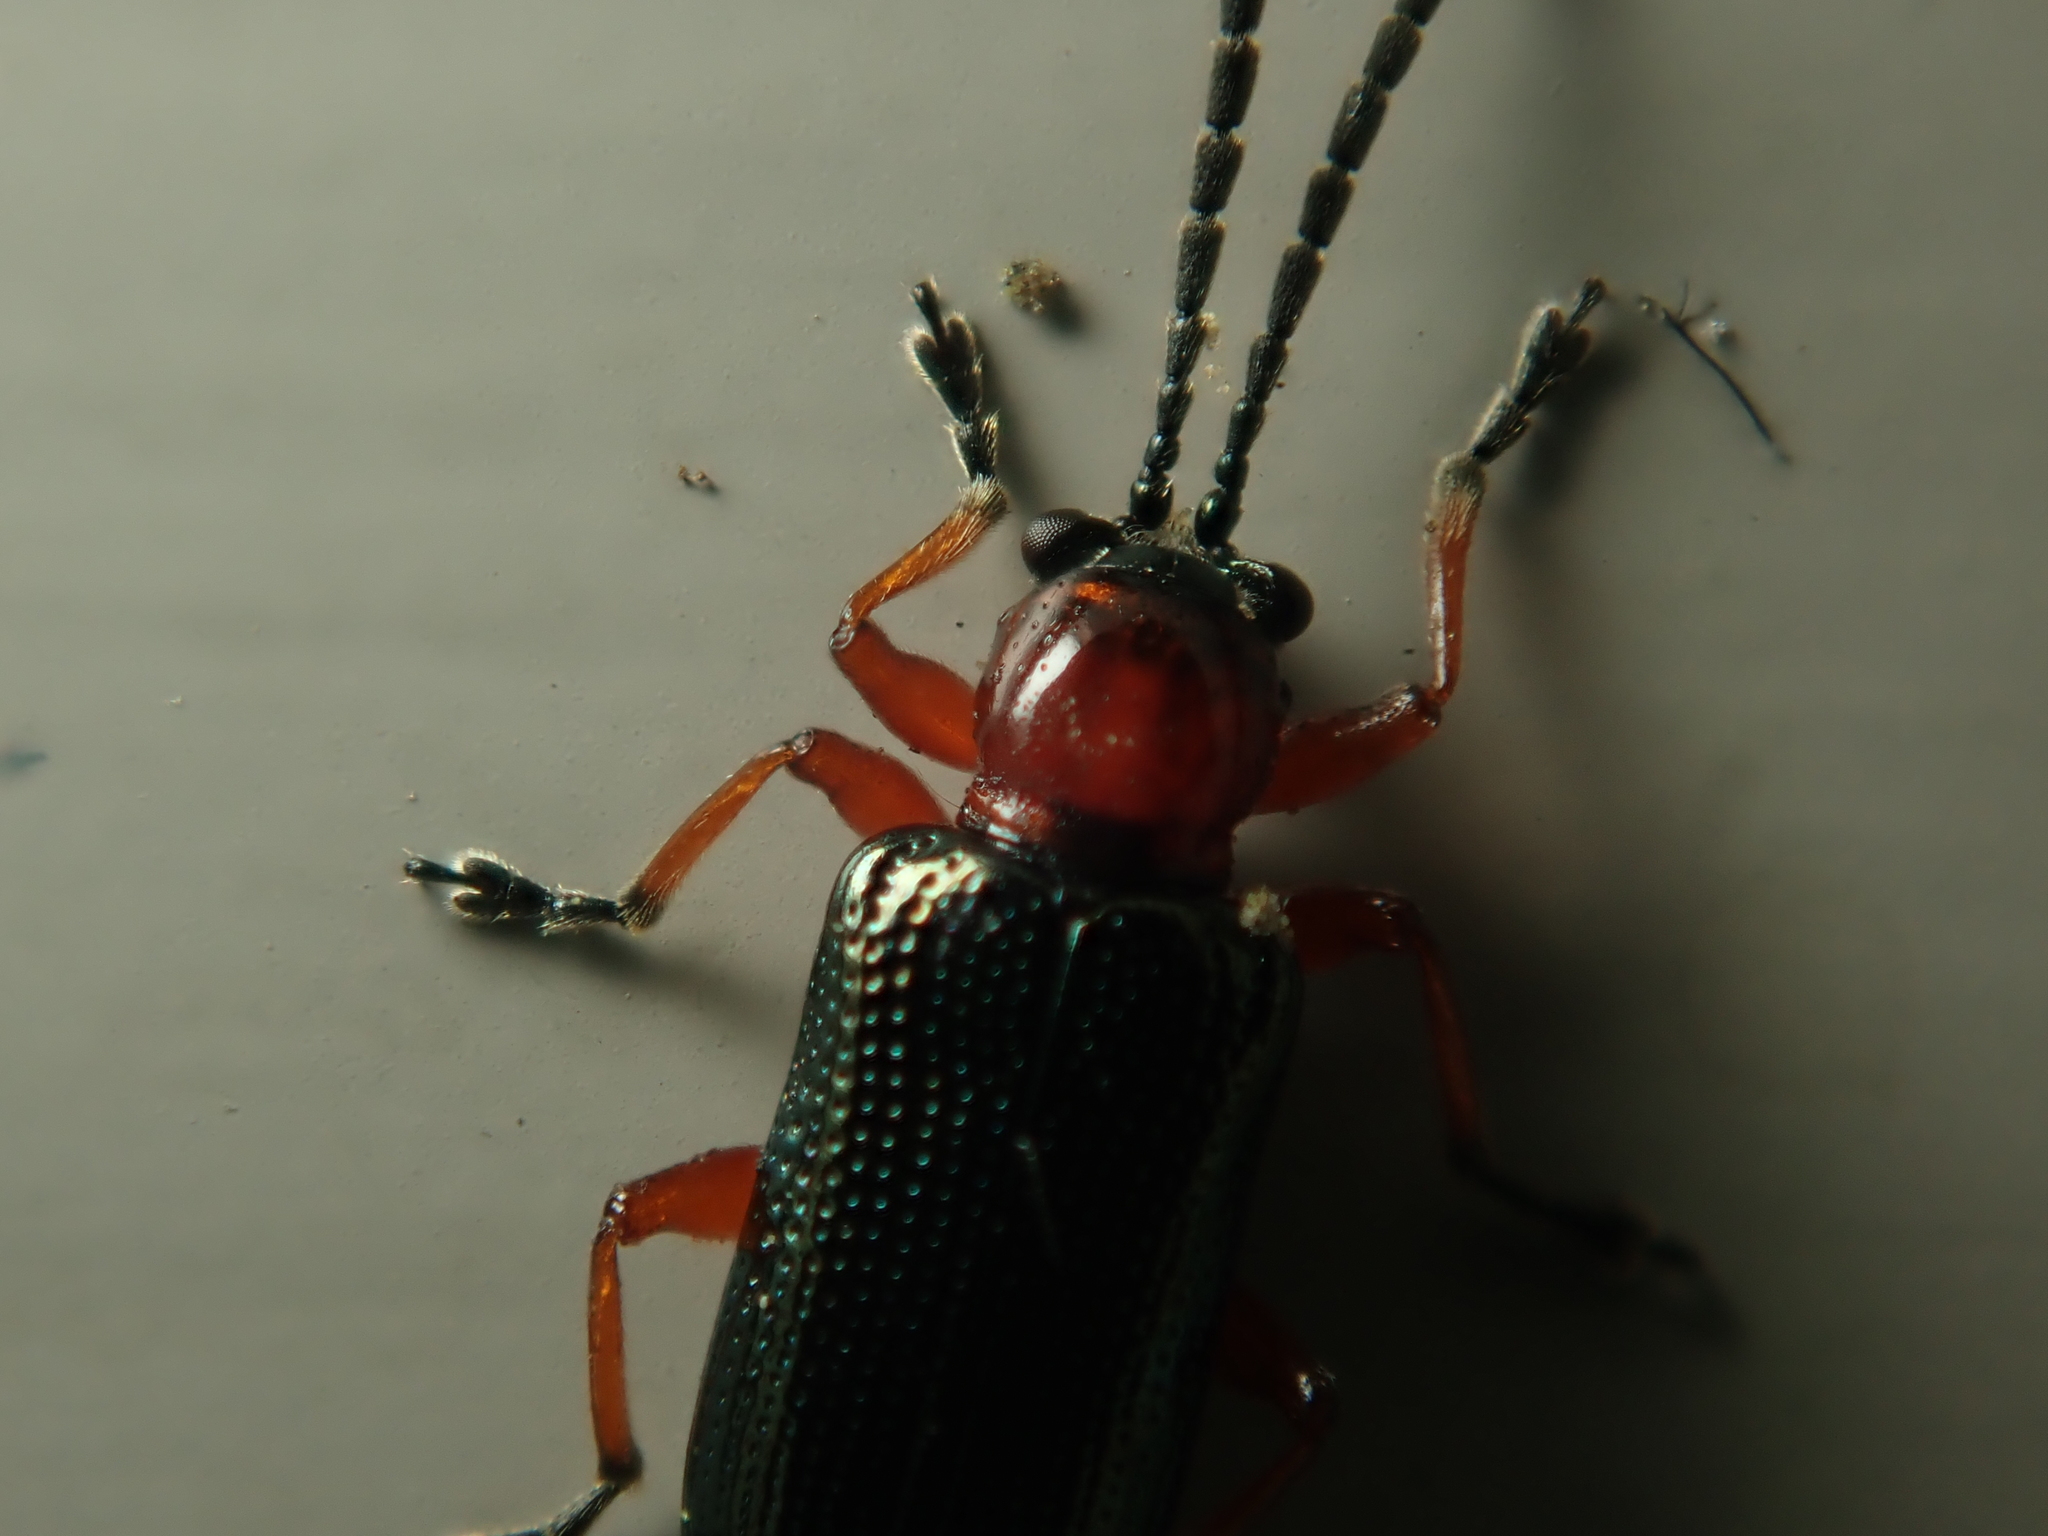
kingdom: Animalia
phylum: Arthropoda
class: Insecta
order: Coleoptera
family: Chrysomelidae
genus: Oulema
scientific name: Oulema
